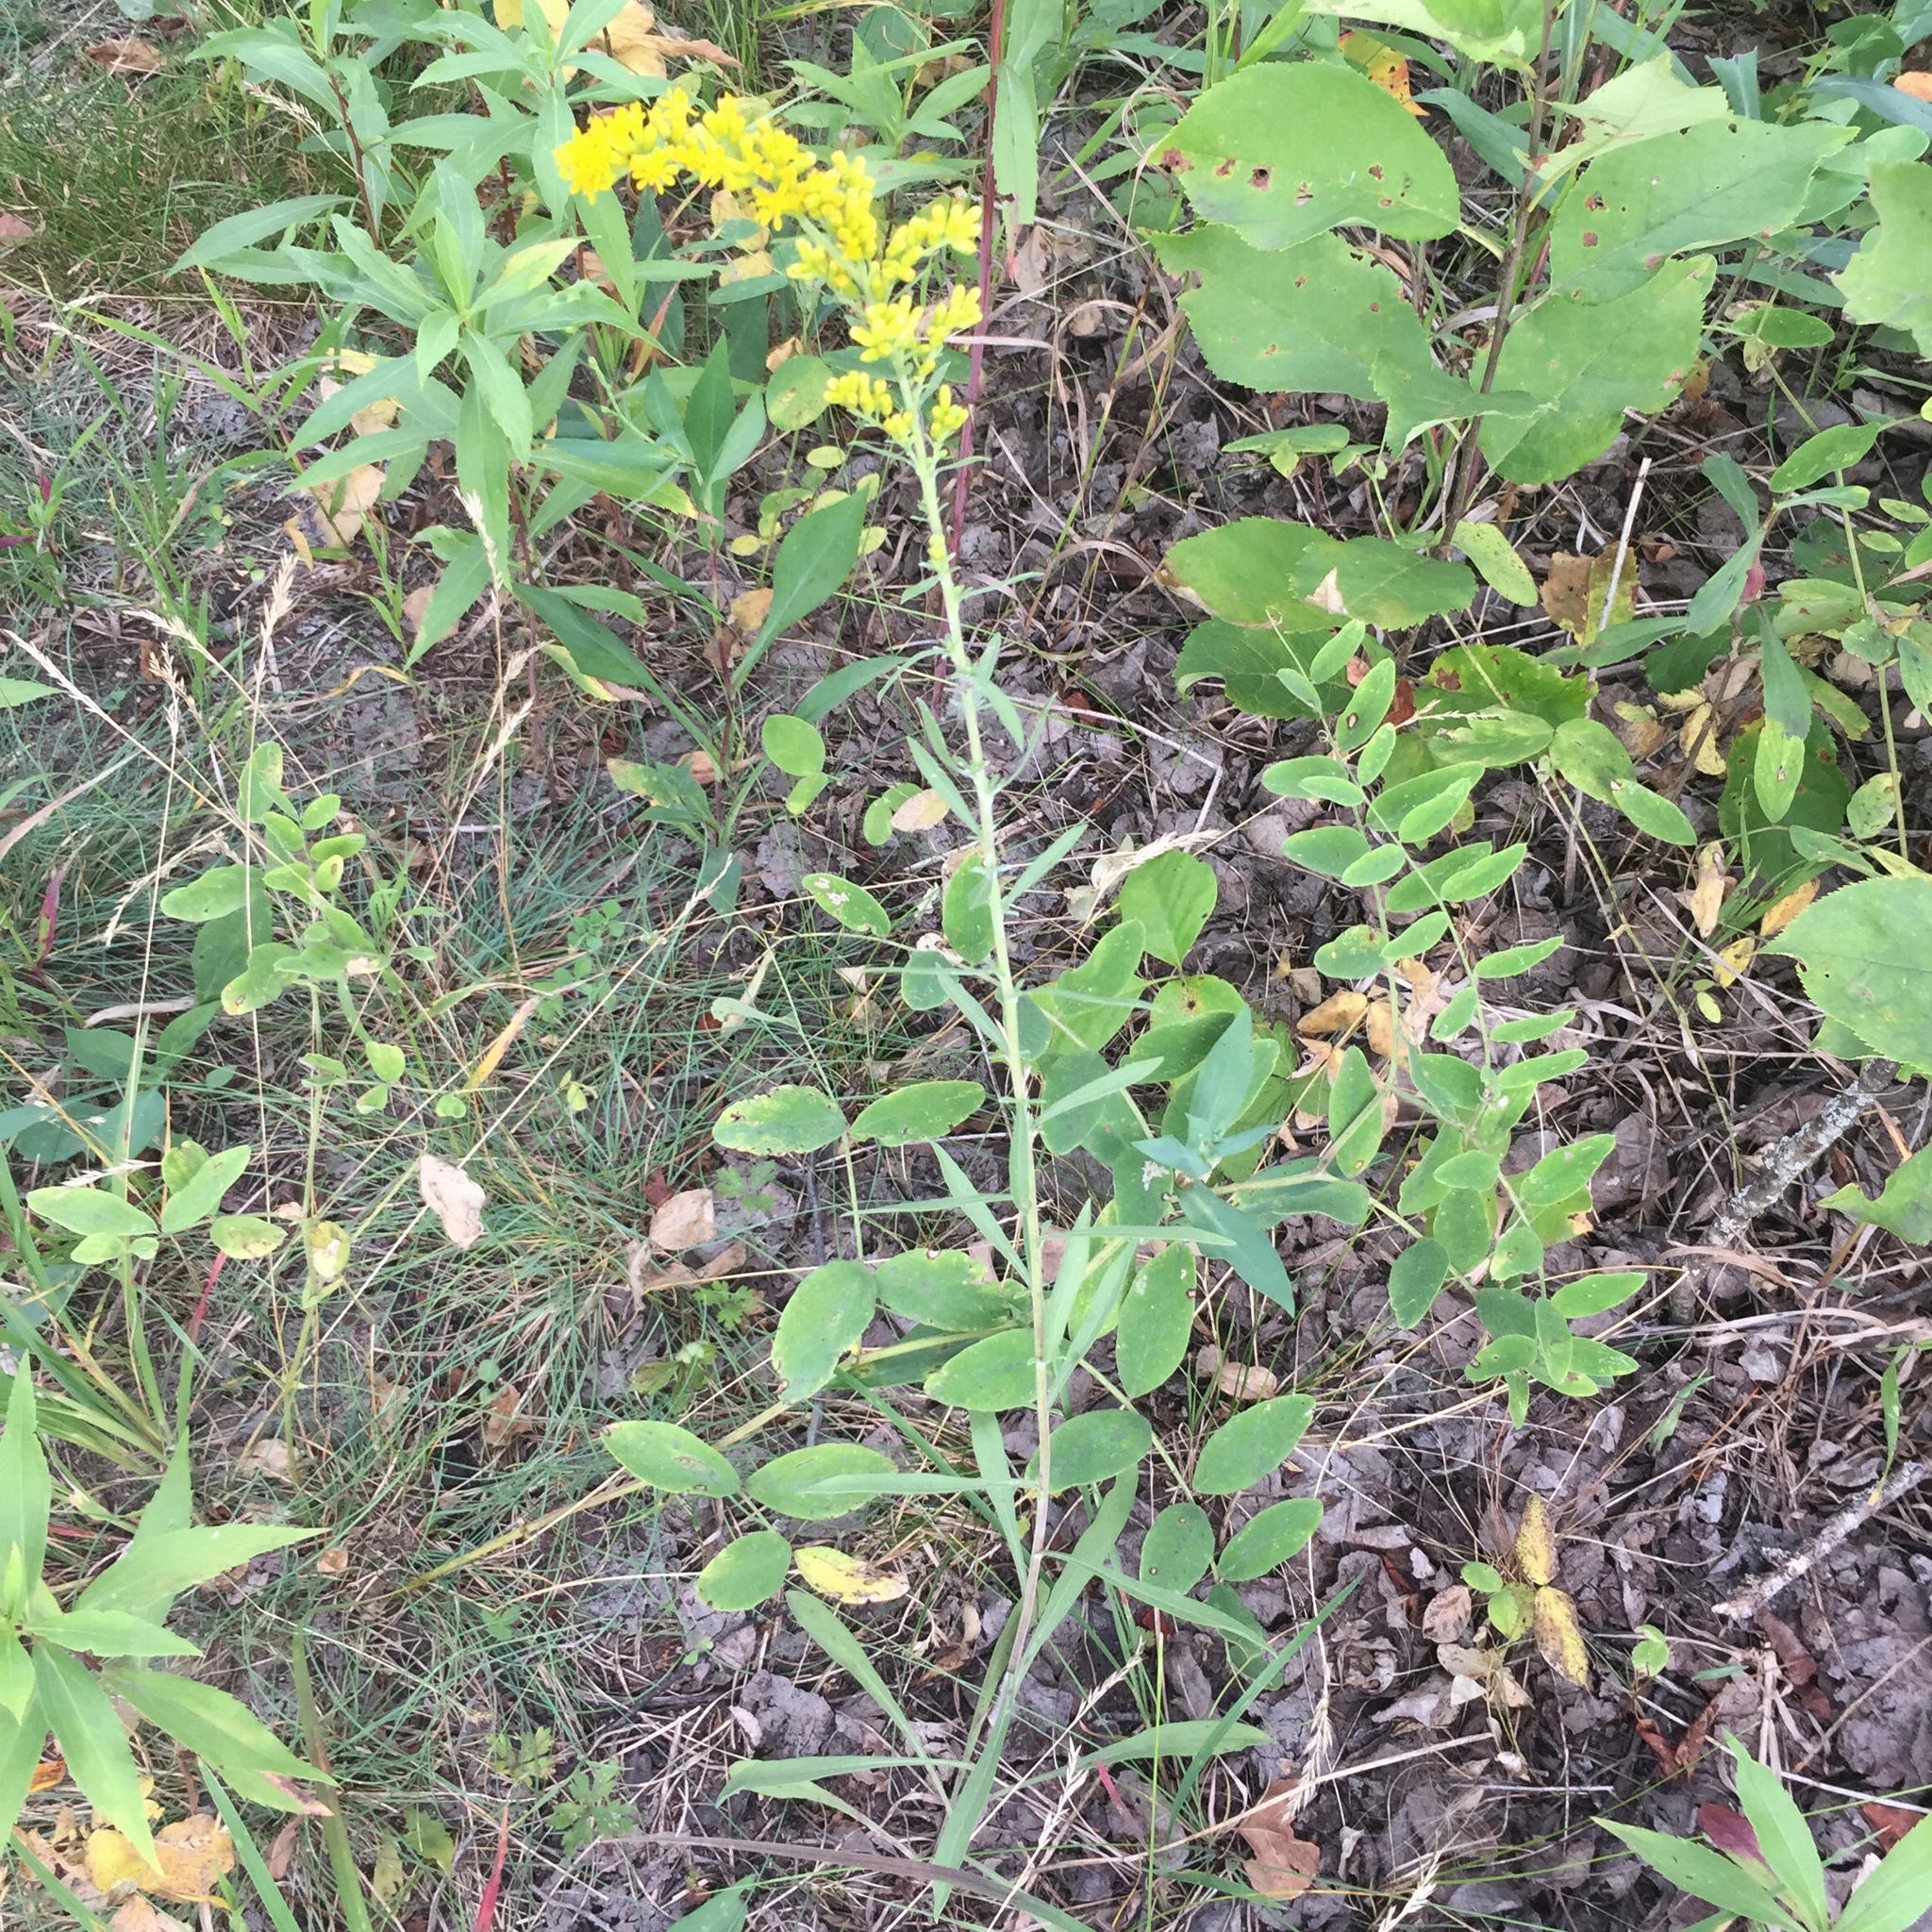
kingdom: Plantae
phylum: Tracheophyta
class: Magnoliopsida
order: Asterales
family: Asteraceae
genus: Solidago
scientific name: Solidago nemoralis
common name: Grey goldenrod
